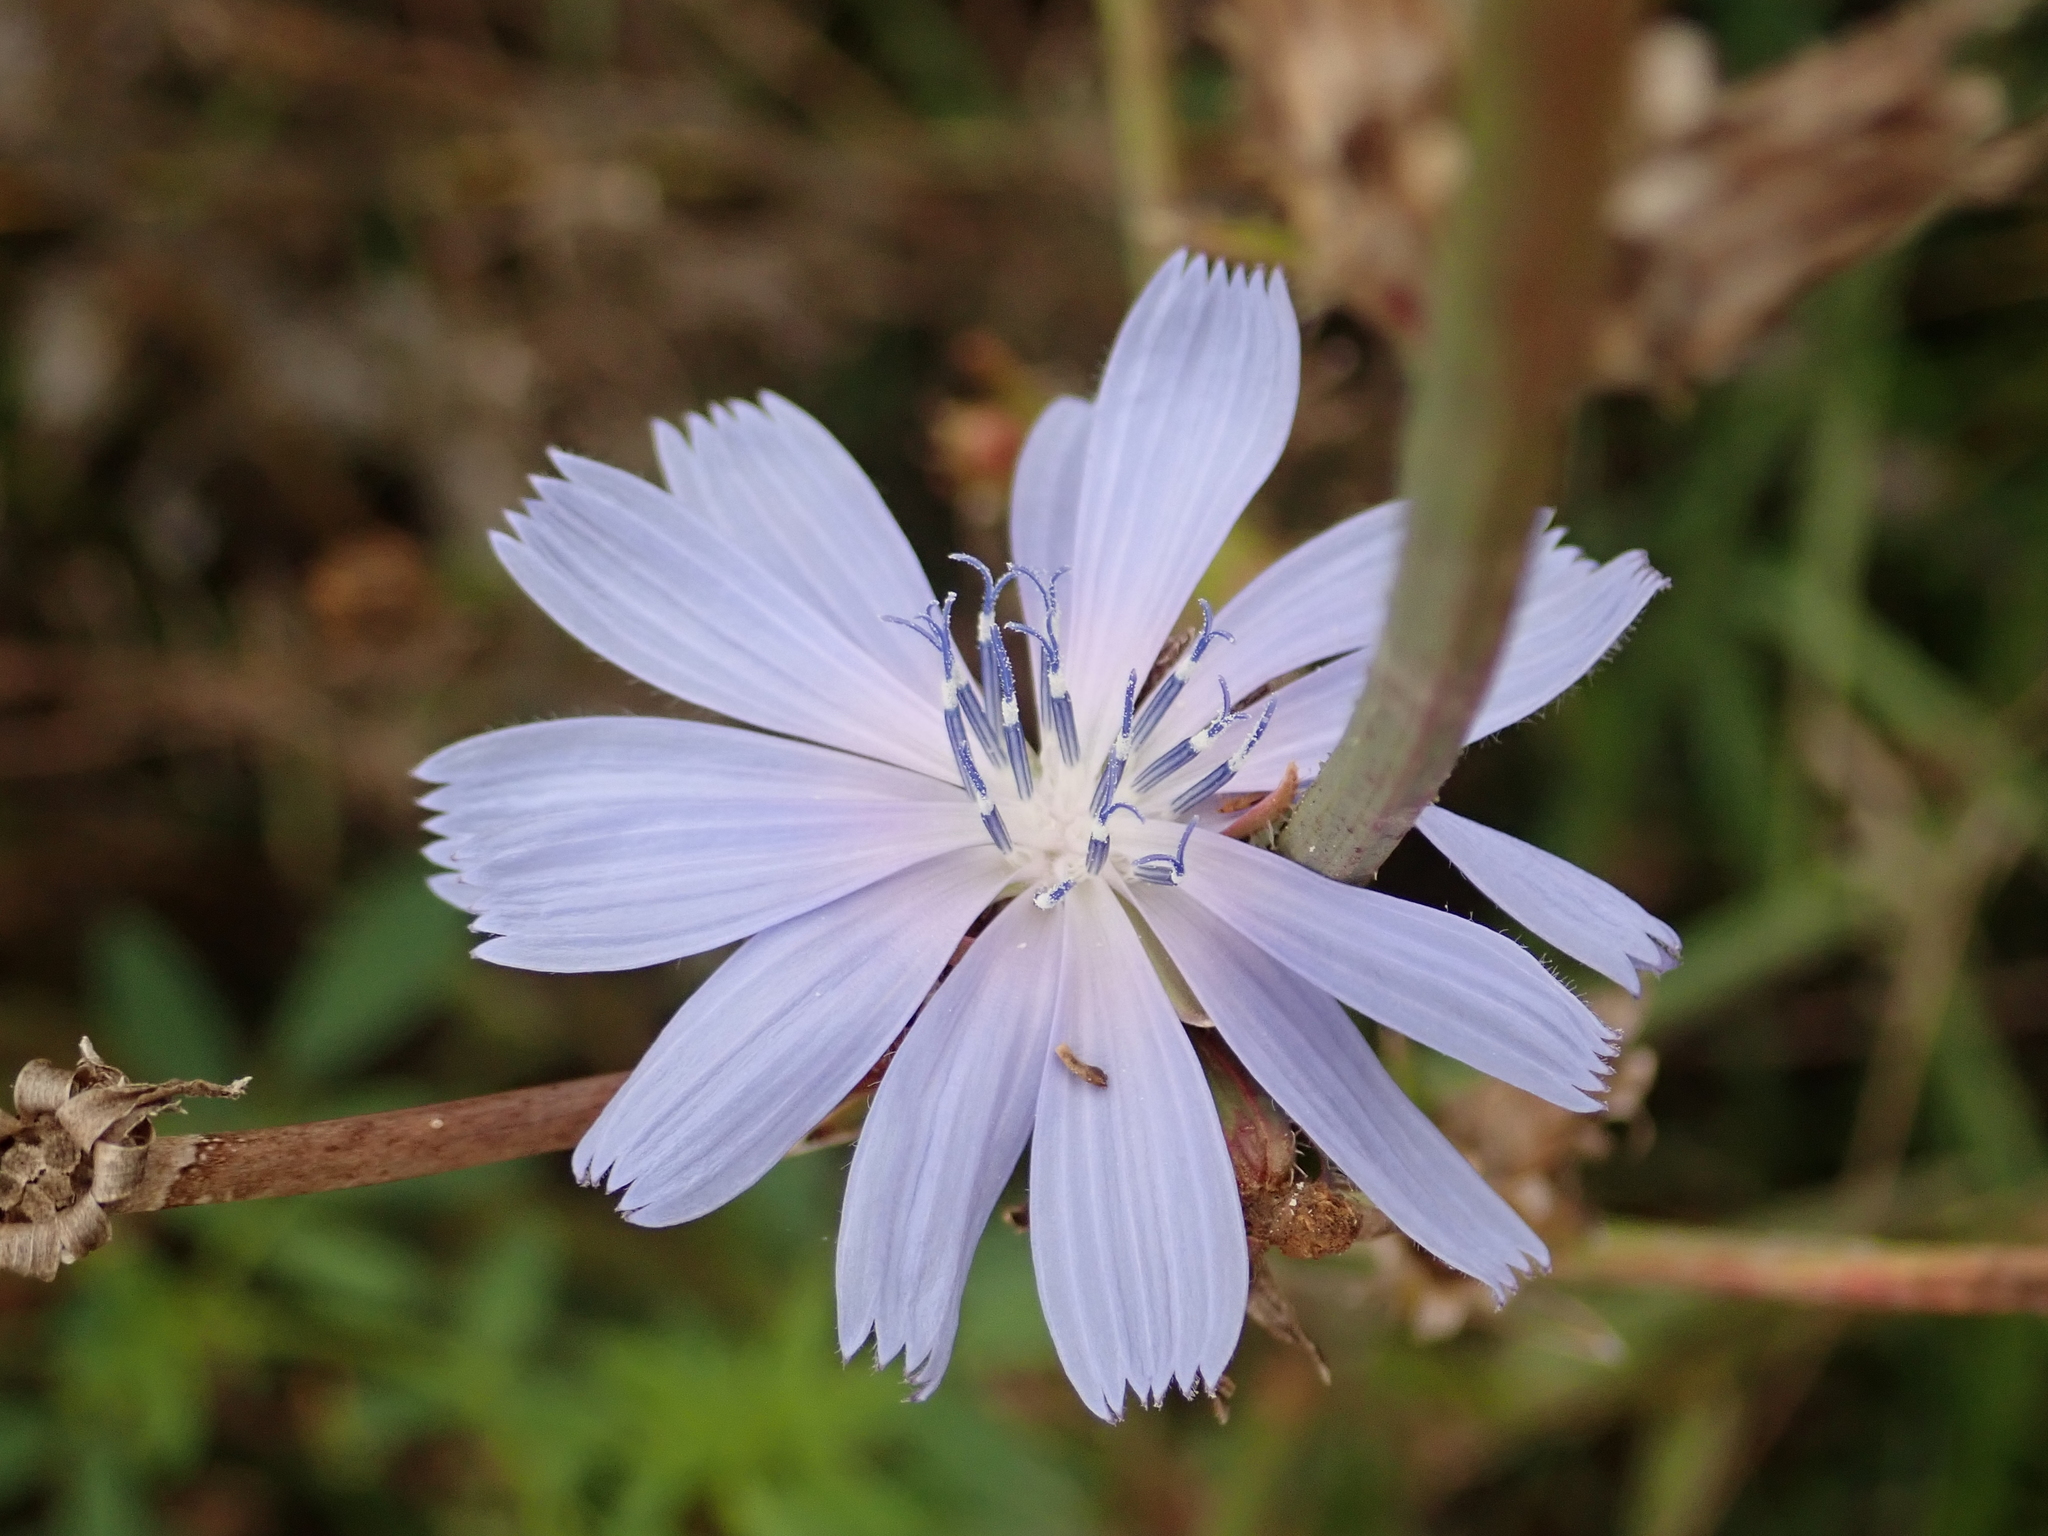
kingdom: Plantae
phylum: Tracheophyta
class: Magnoliopsida
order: Asterales
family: Asteraceae
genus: Cichorium
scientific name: Cichorium intybus
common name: Chicory
